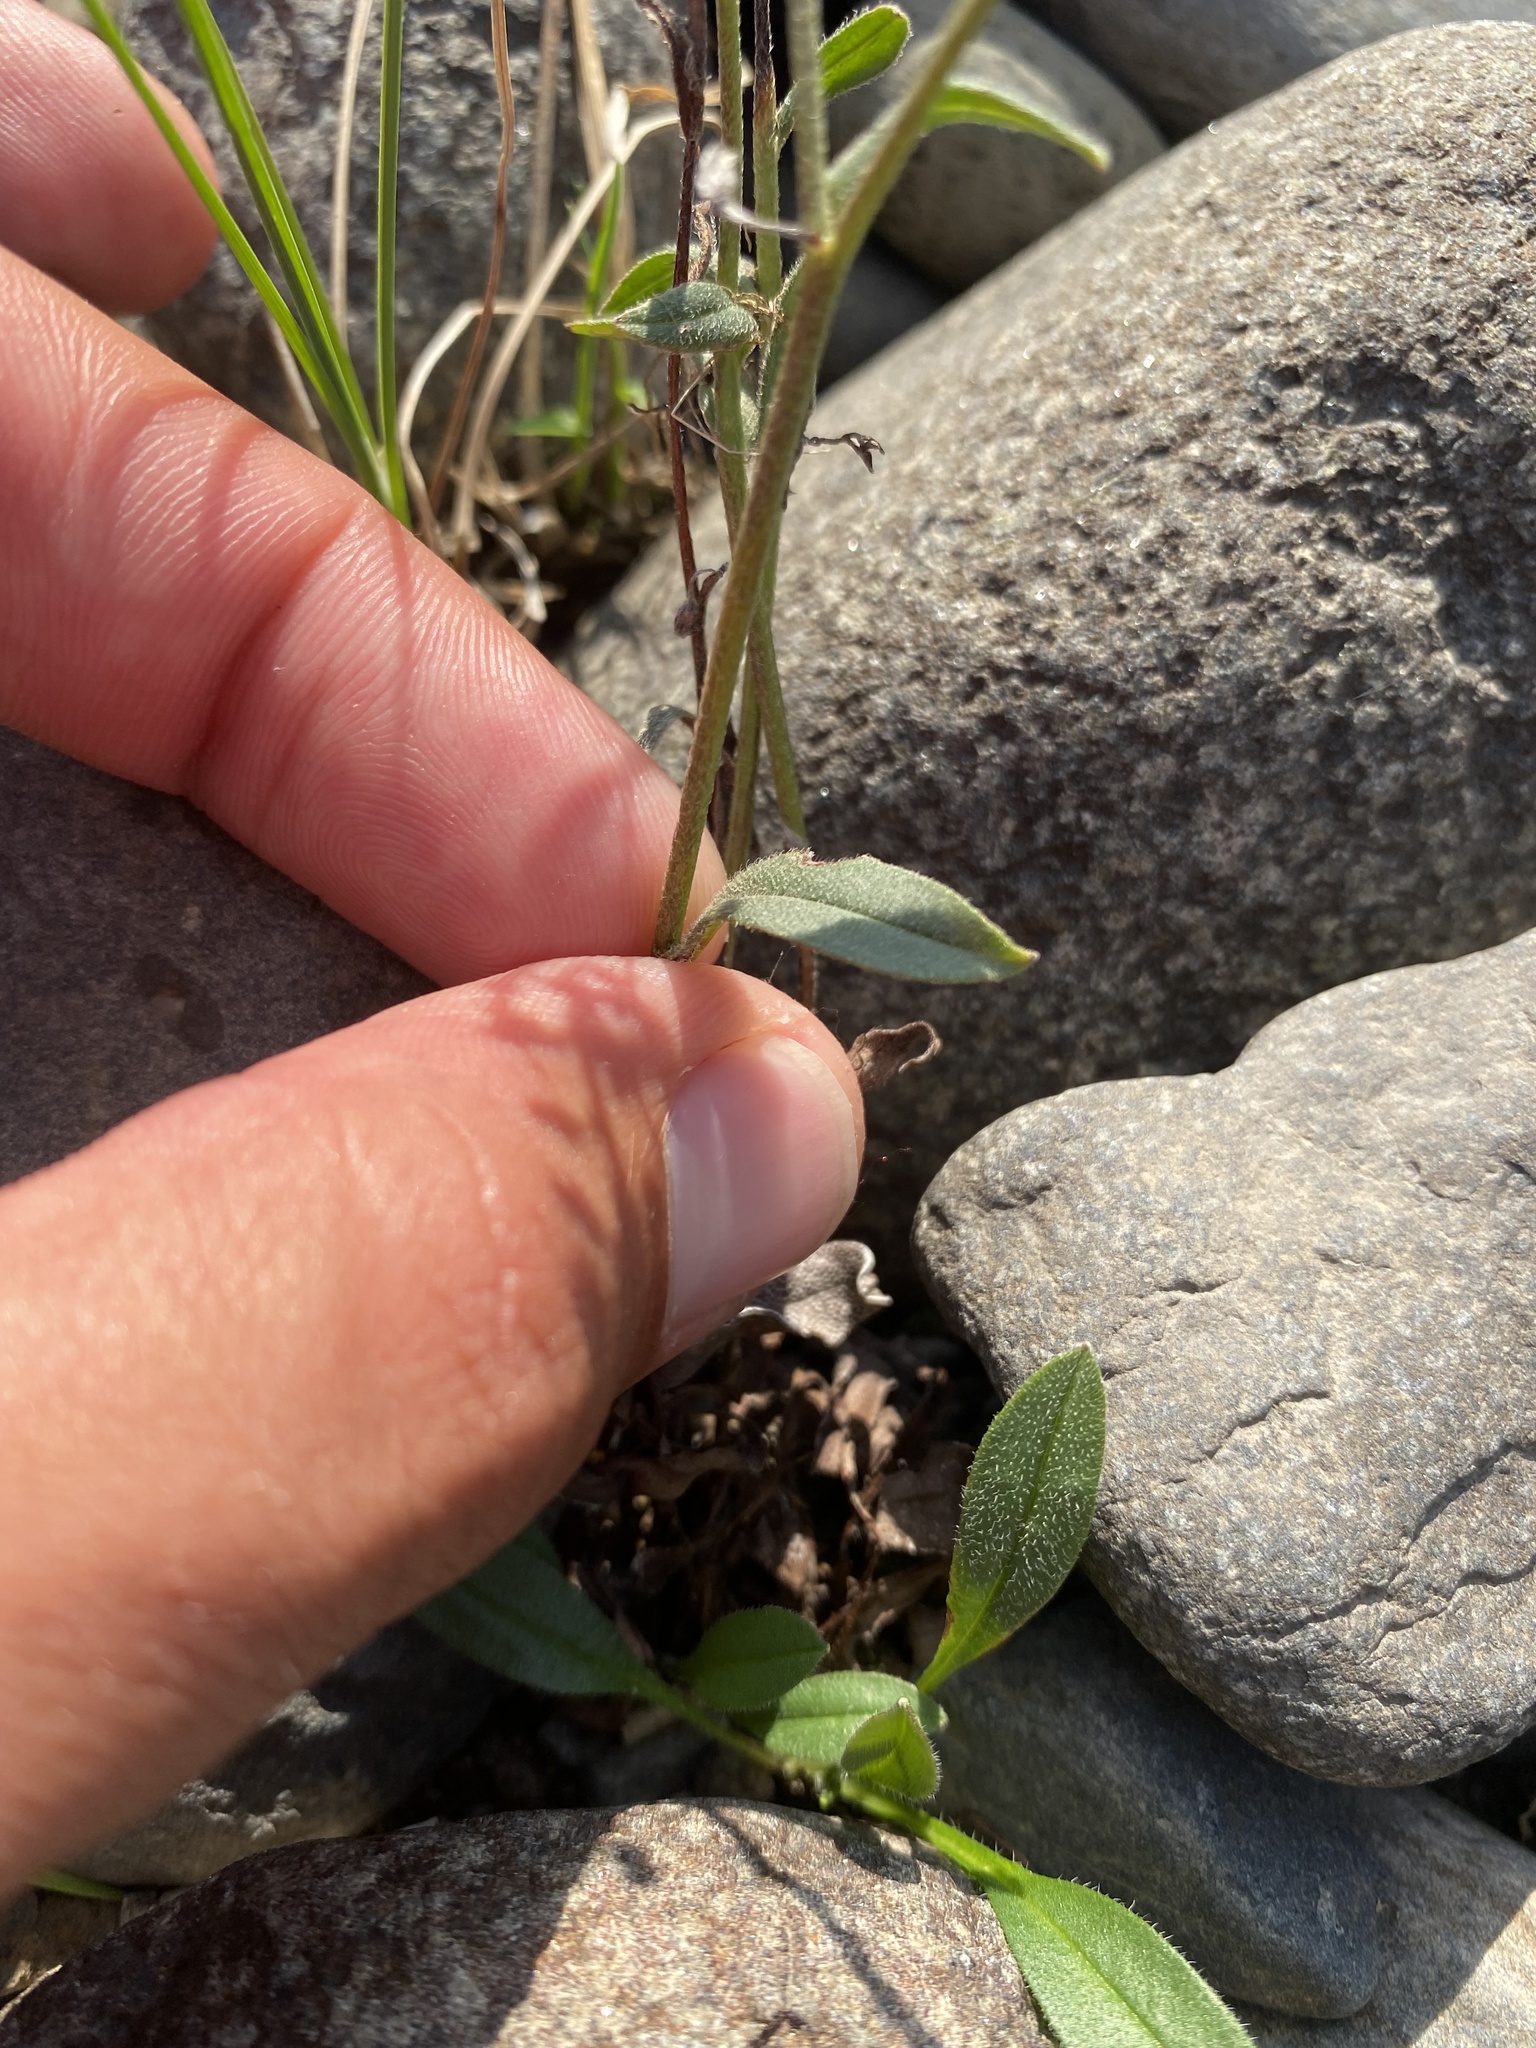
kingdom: Plantae
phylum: Tracheophyta
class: Magnoliopsida
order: Boraginales
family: Boraginaceae
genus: Myosotis
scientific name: Myosotis asiatica
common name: Asian forget-me-not
